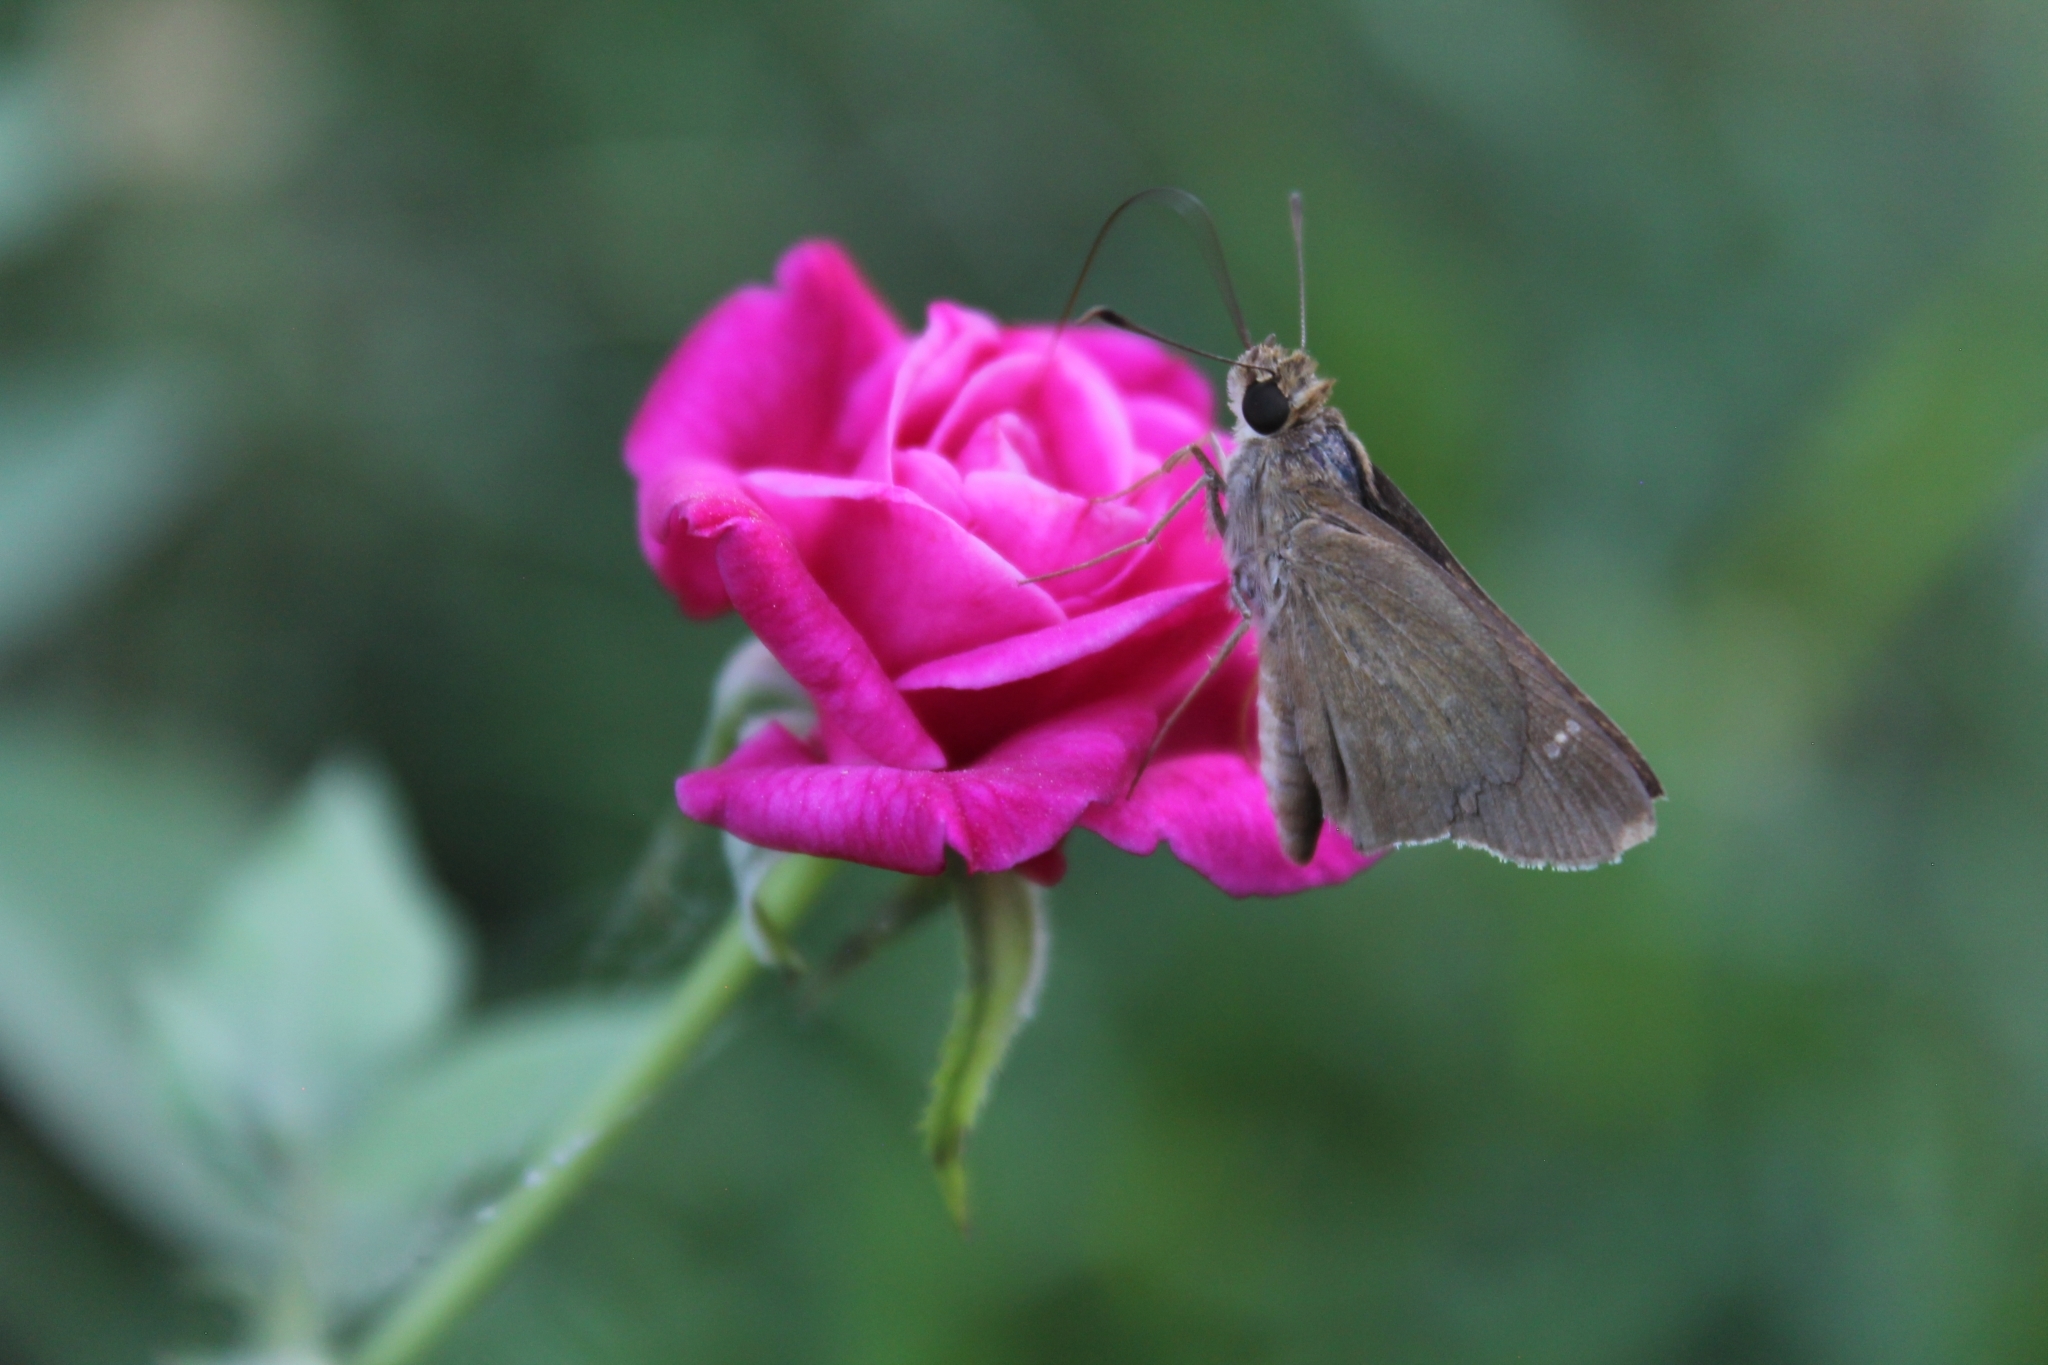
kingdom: Animalia
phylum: Arthropoda
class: Insecta
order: Lepidoptera
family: Hesperiidae
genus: Lerodea
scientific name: Lerodea eufala
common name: Eufala skipper
